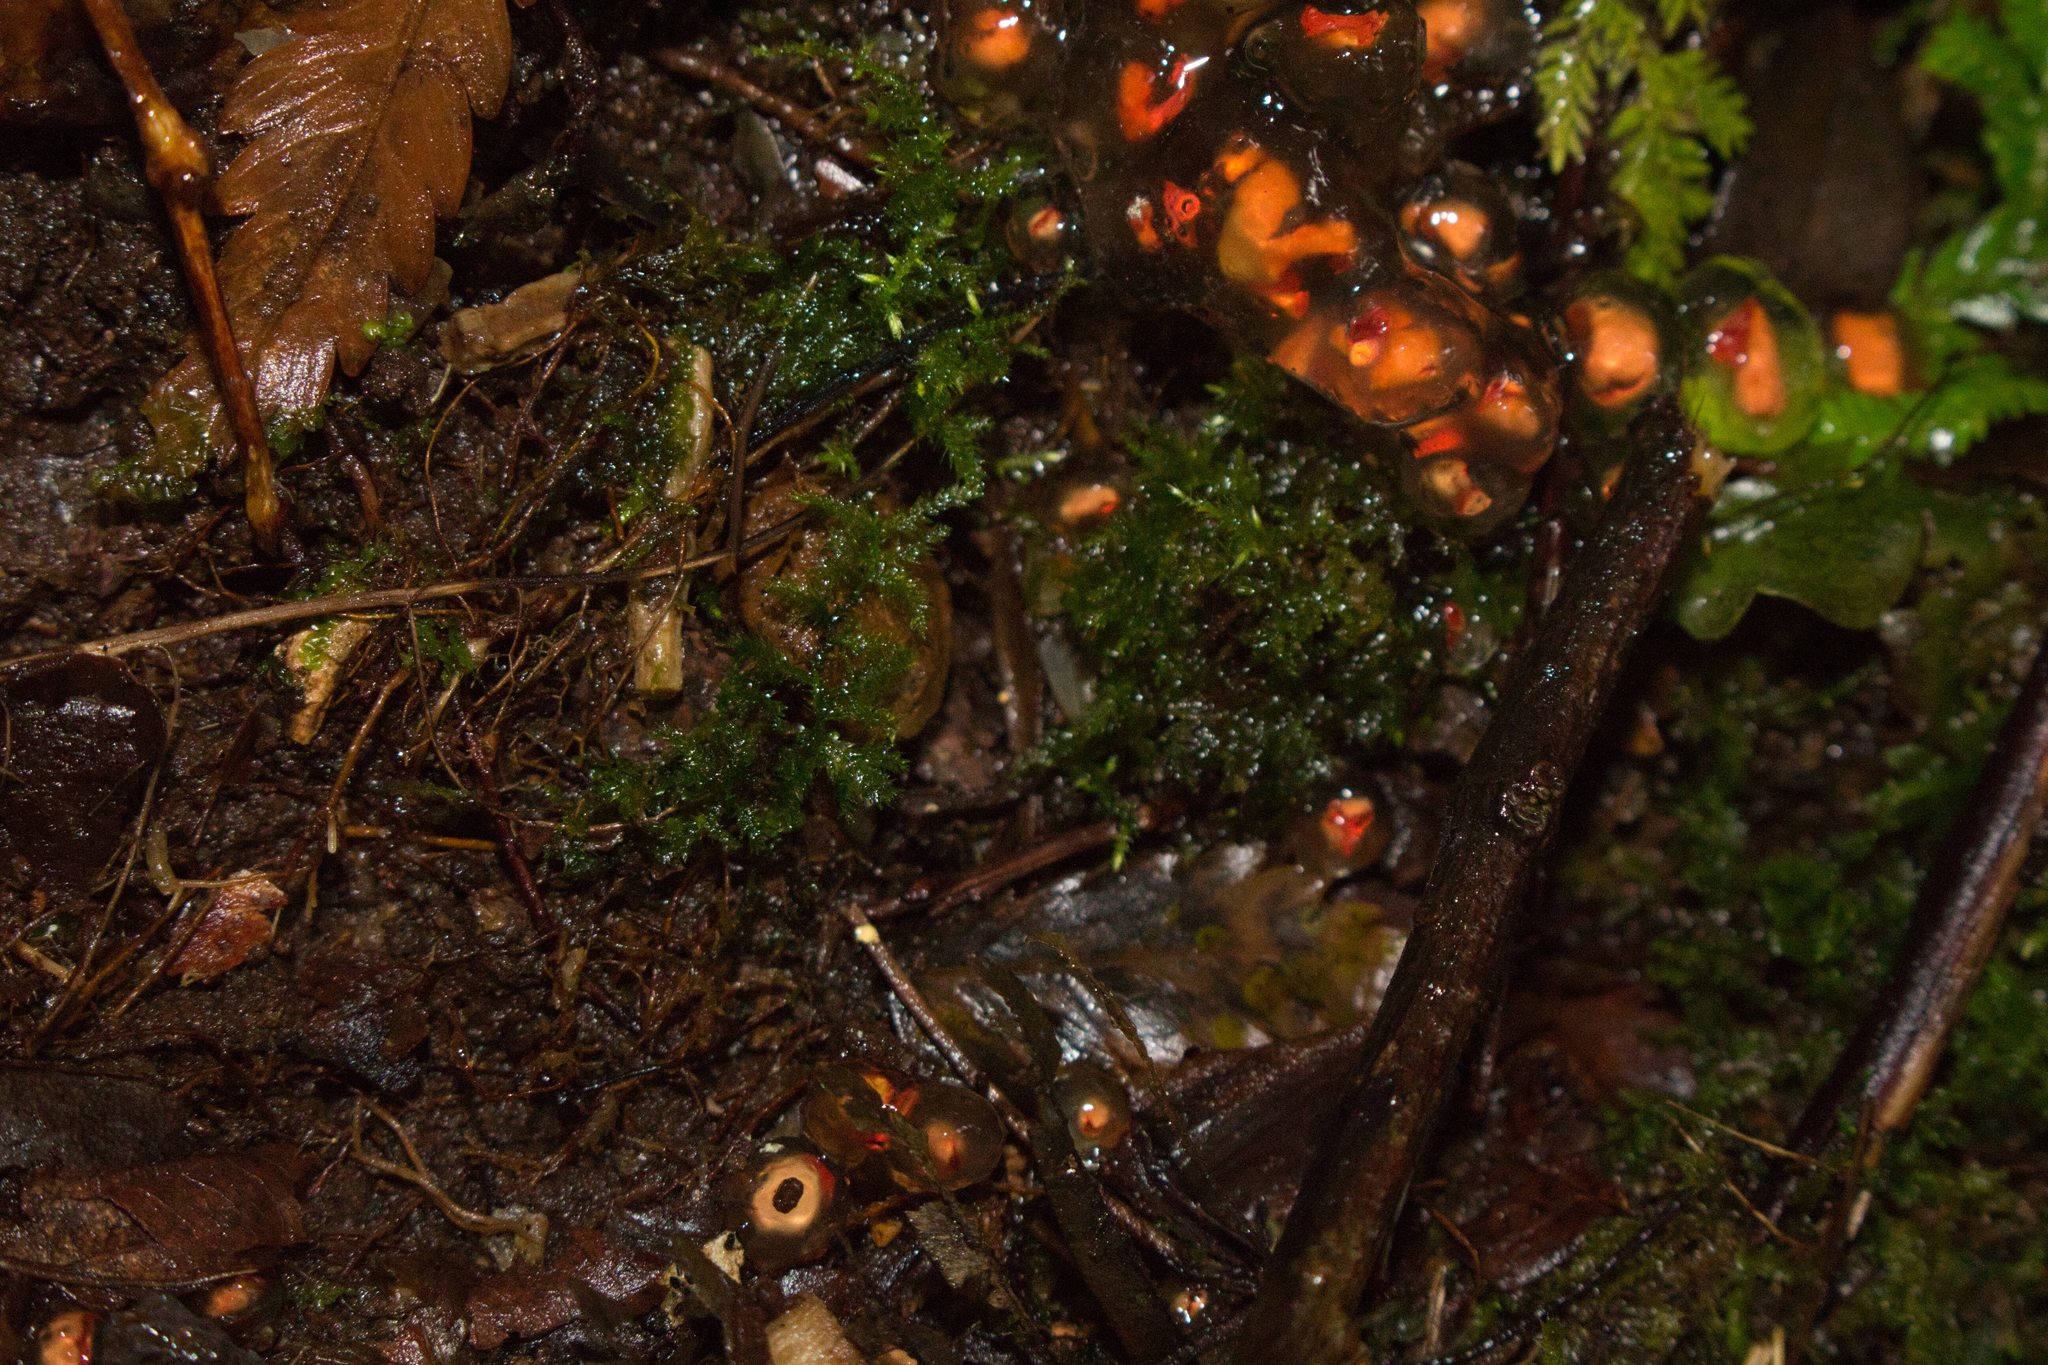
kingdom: Fungi
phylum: Basidiomycota
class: Agaricomycetes
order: Boletales
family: Calostomataceae
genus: Calostoma
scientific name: Calostoma cinnabarinum
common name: Stalked puffball-in-aspic
